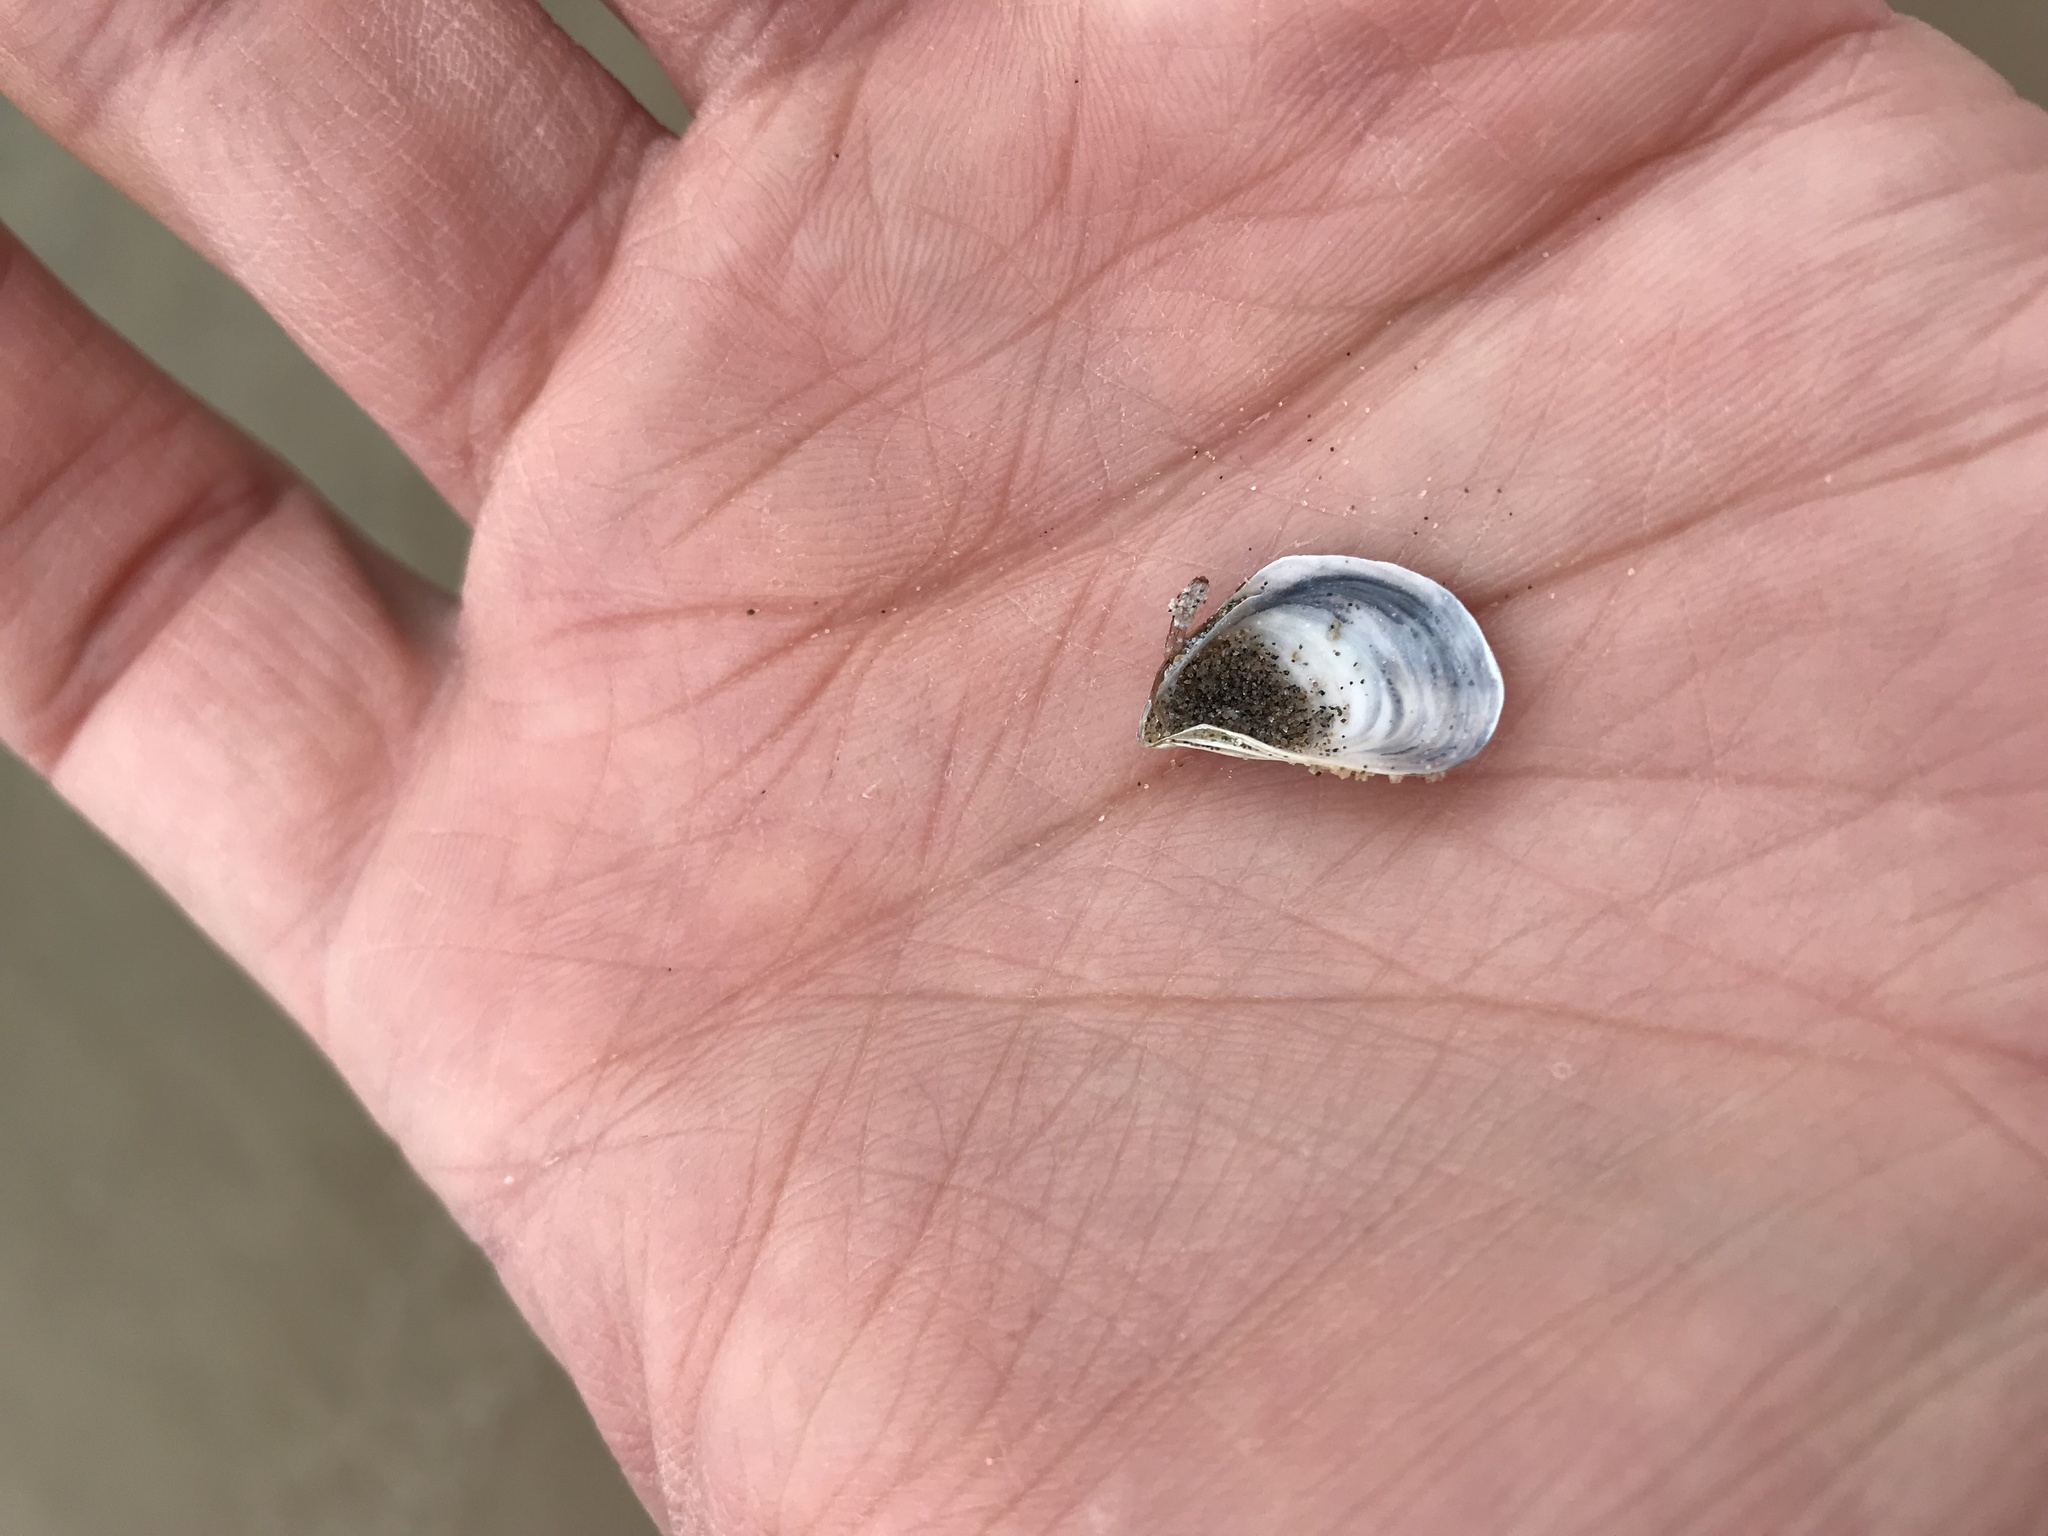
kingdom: Animalia
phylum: Mollusca
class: Bivalvia
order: Myida
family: Dreissenidae
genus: Dreissena
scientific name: Dreissena bugensis
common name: Quagga mussel
